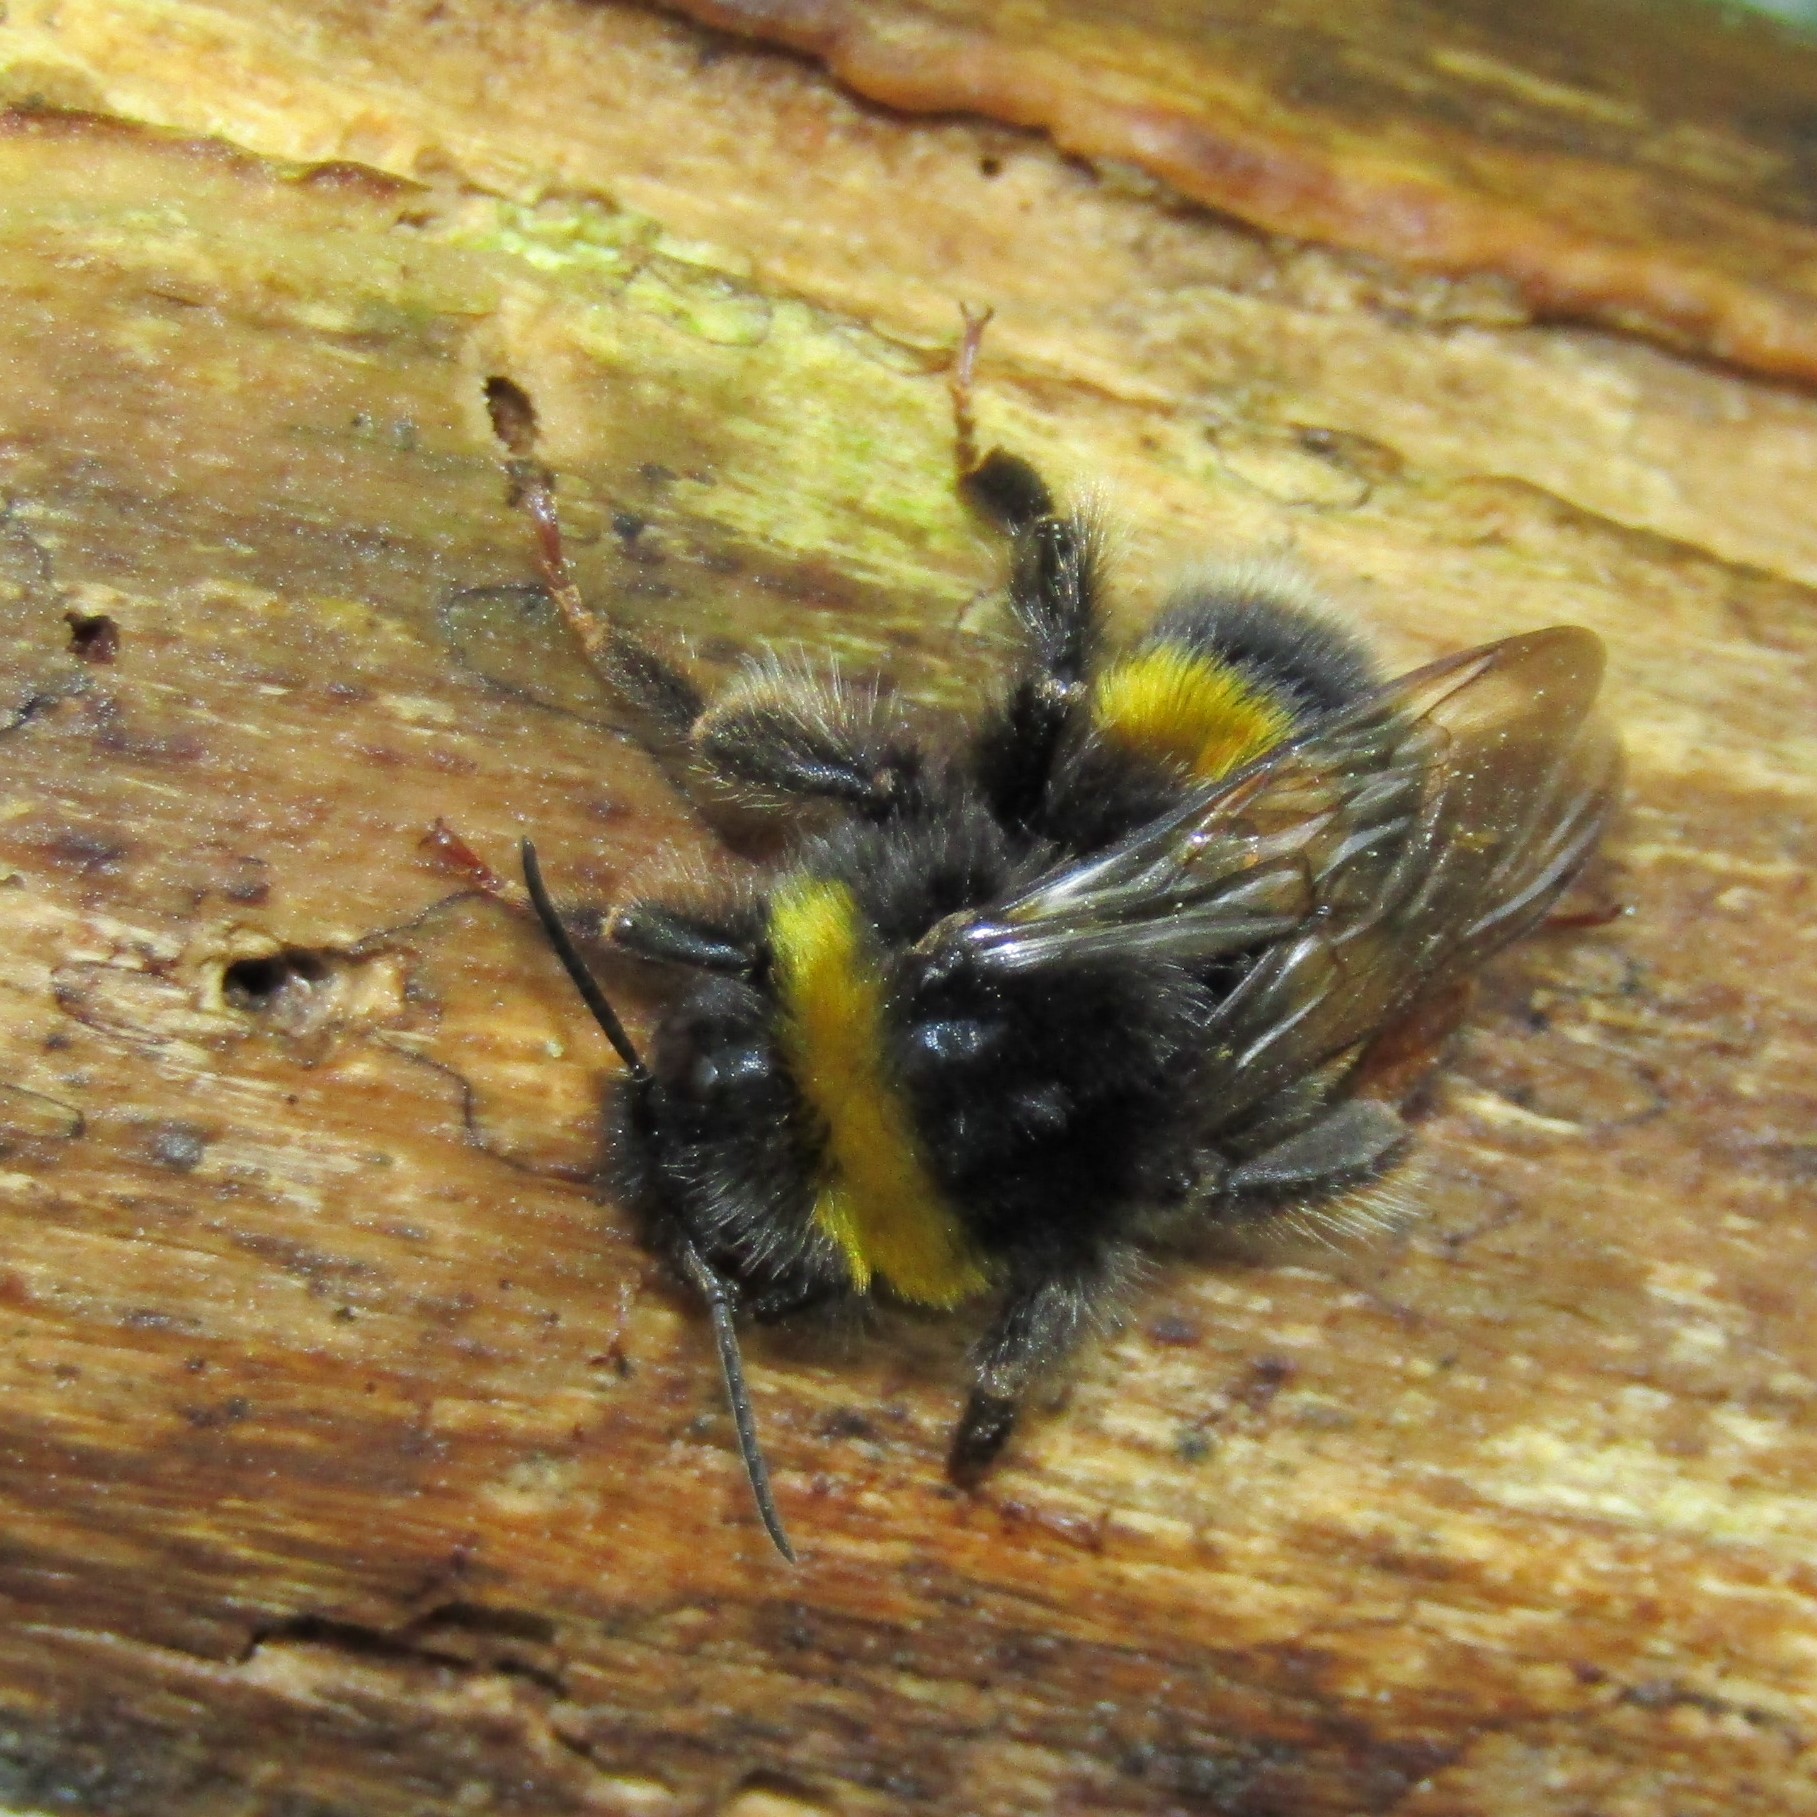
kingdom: Animalia
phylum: Arthropoda
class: Insecta
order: Hymenoptera
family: Apidae
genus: Bombus
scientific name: Bombus terrestris
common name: Buff-tailed bumblebee
